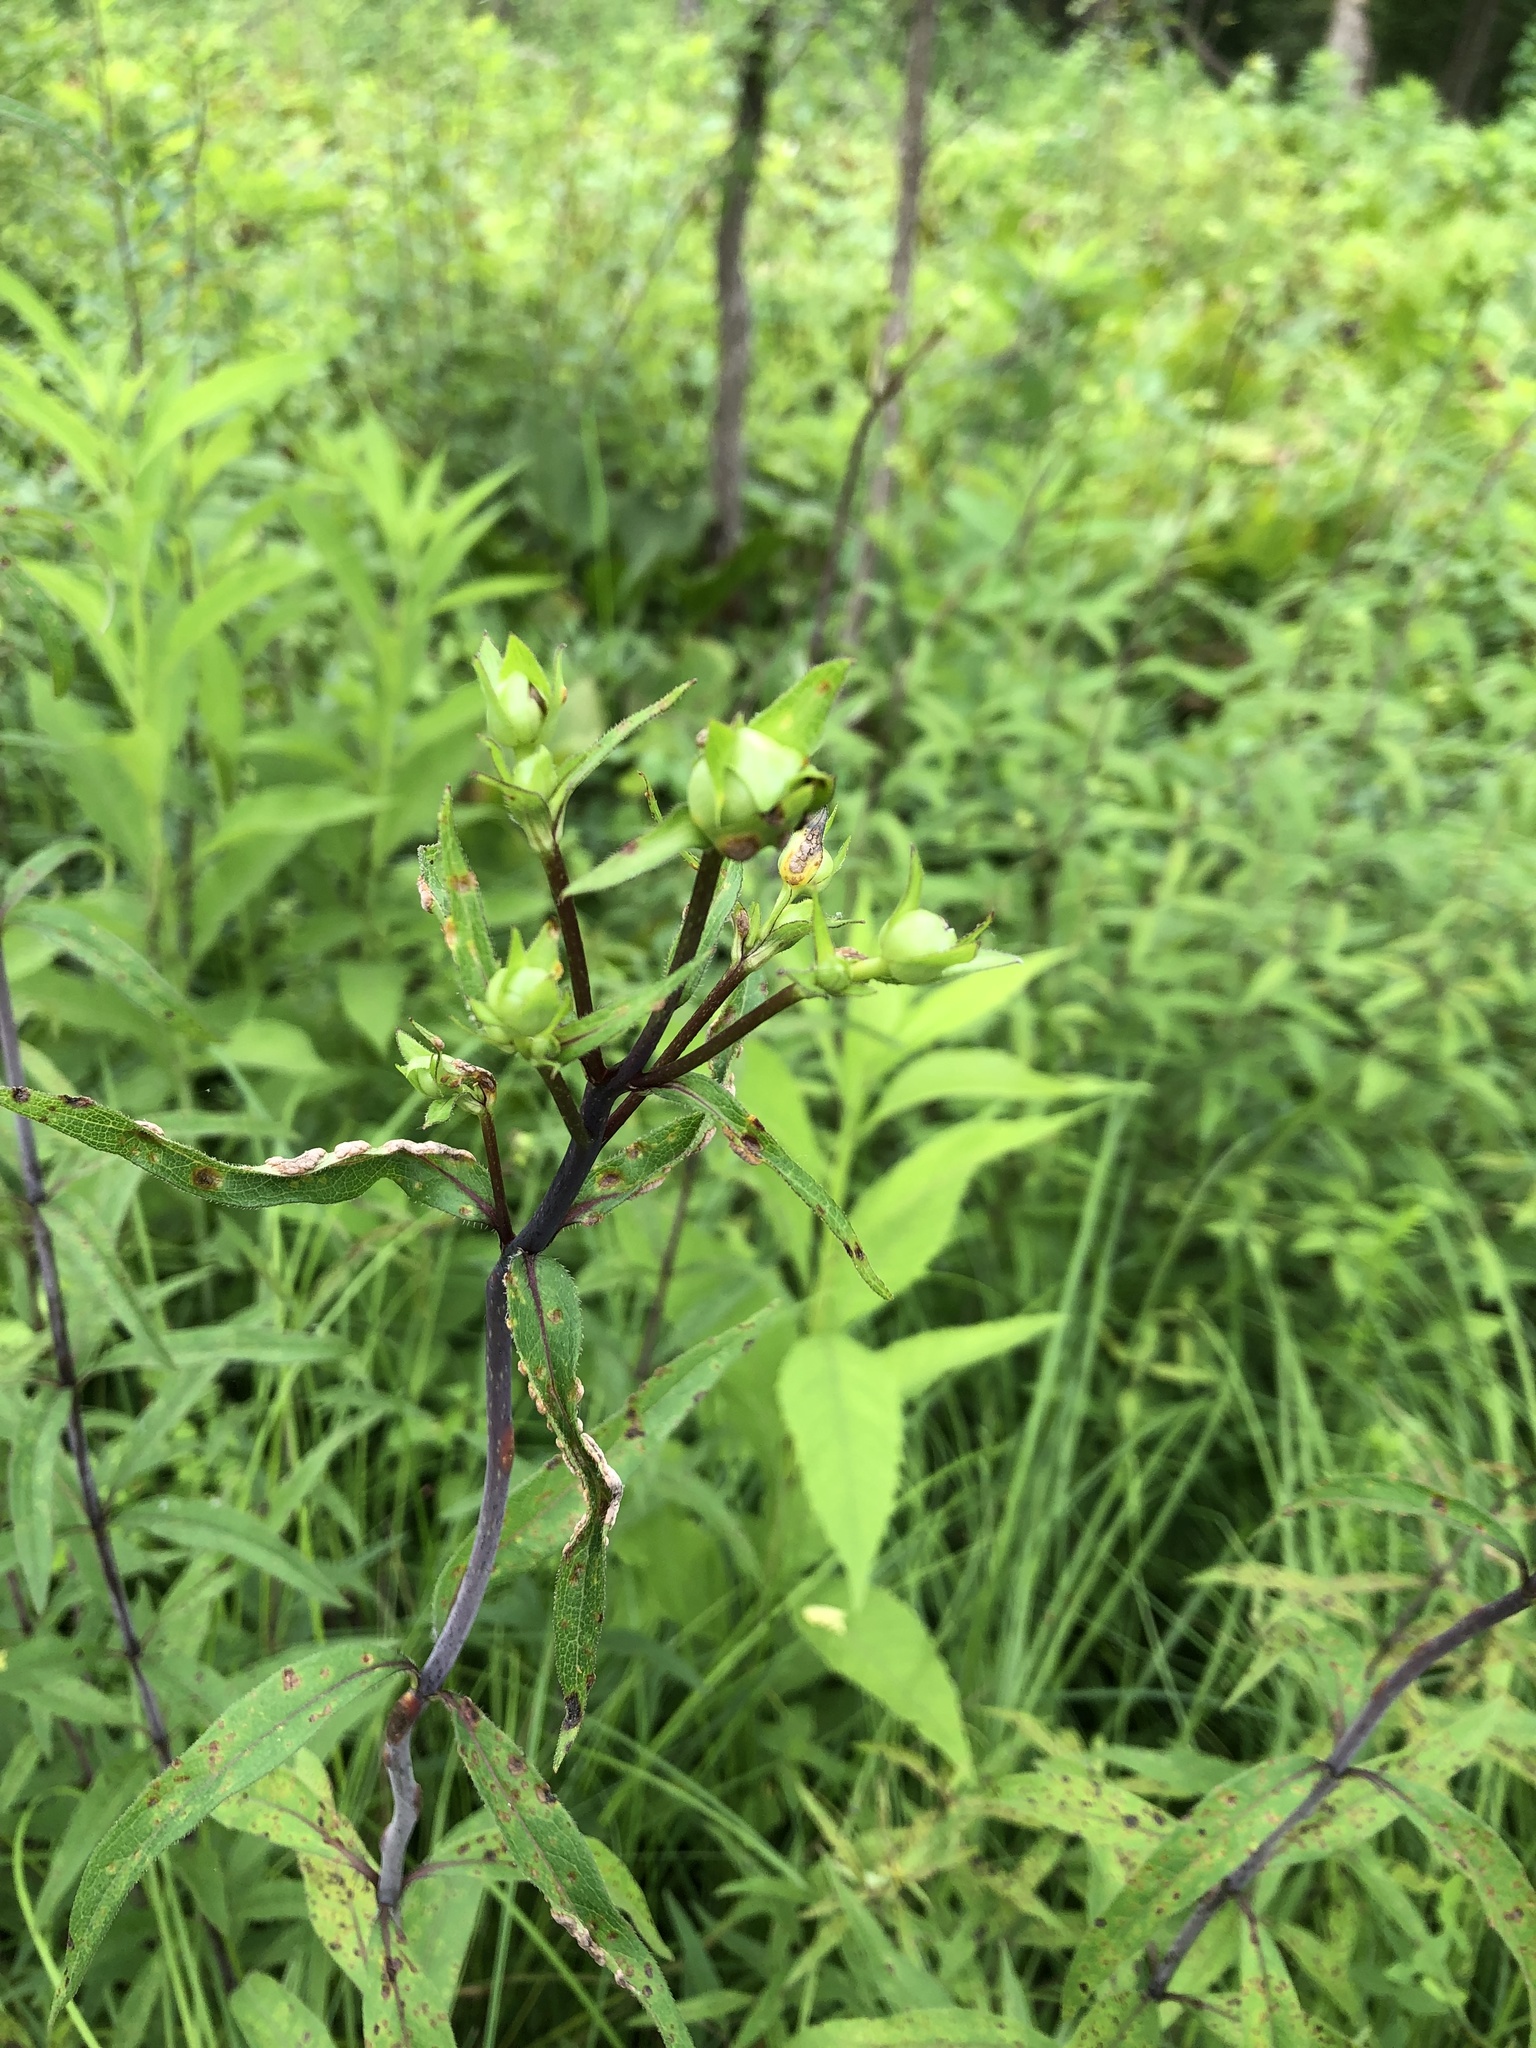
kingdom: Plantae
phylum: Tracheophyta
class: Magnoliopsida
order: Asterales
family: Asteraceae
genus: Silphium
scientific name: Silphium asteriscus
